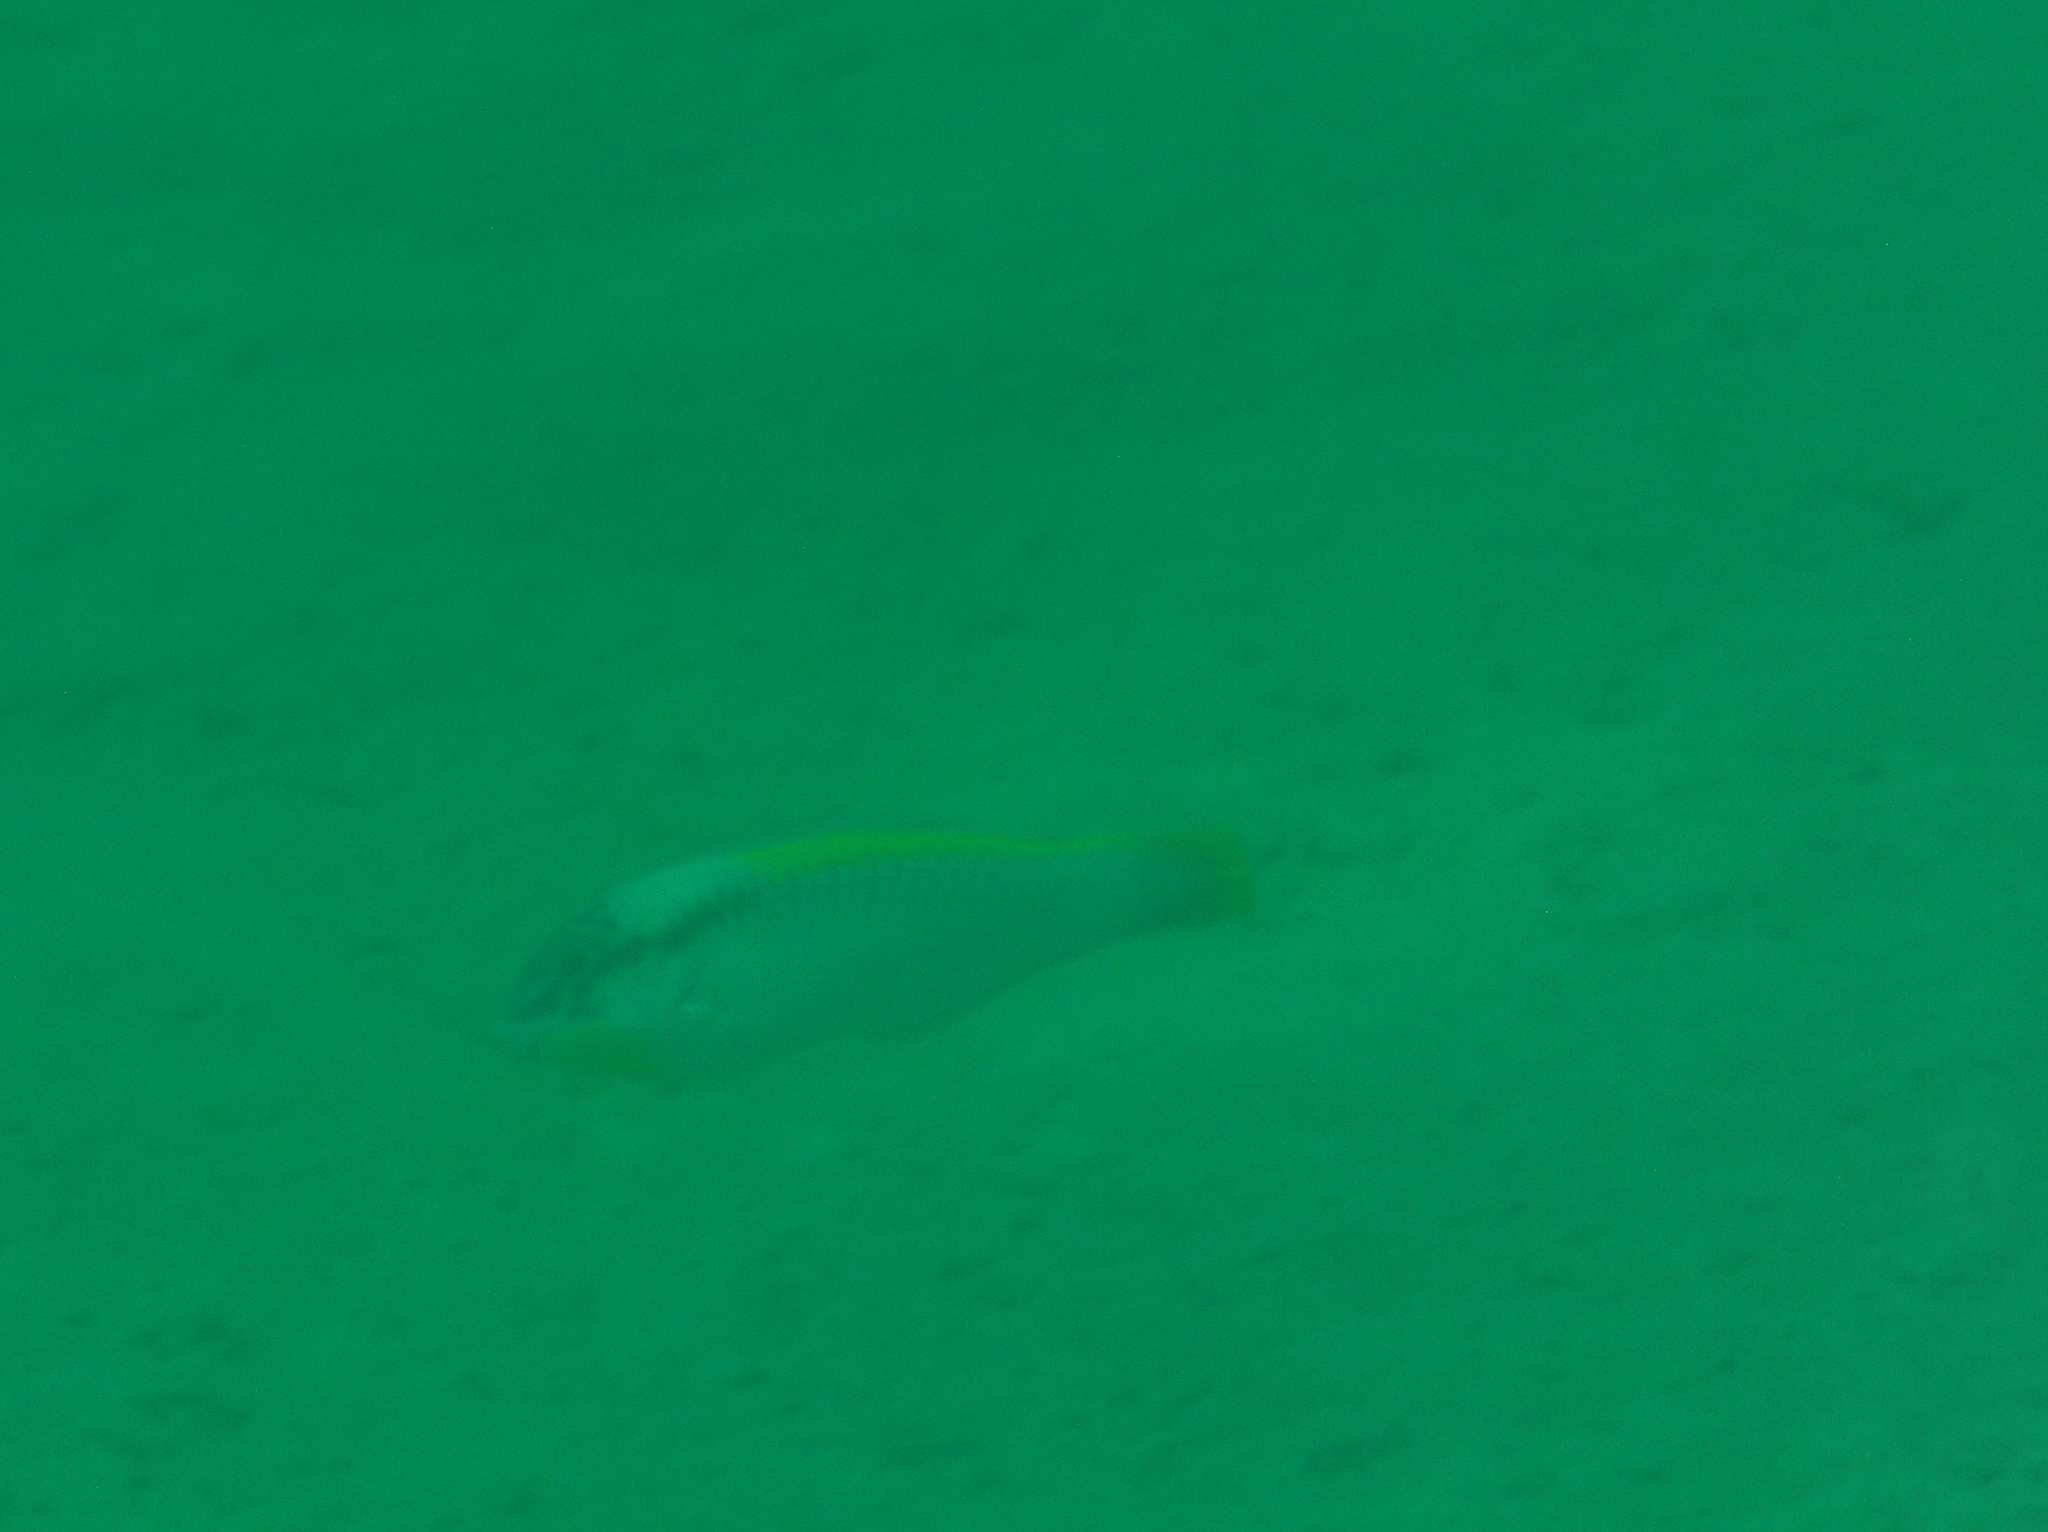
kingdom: Animalia
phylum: Chordata
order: Perciformes
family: Labridae
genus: Halichoeres
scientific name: Halichoeres scapularis
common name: Brownbanded wrasse
